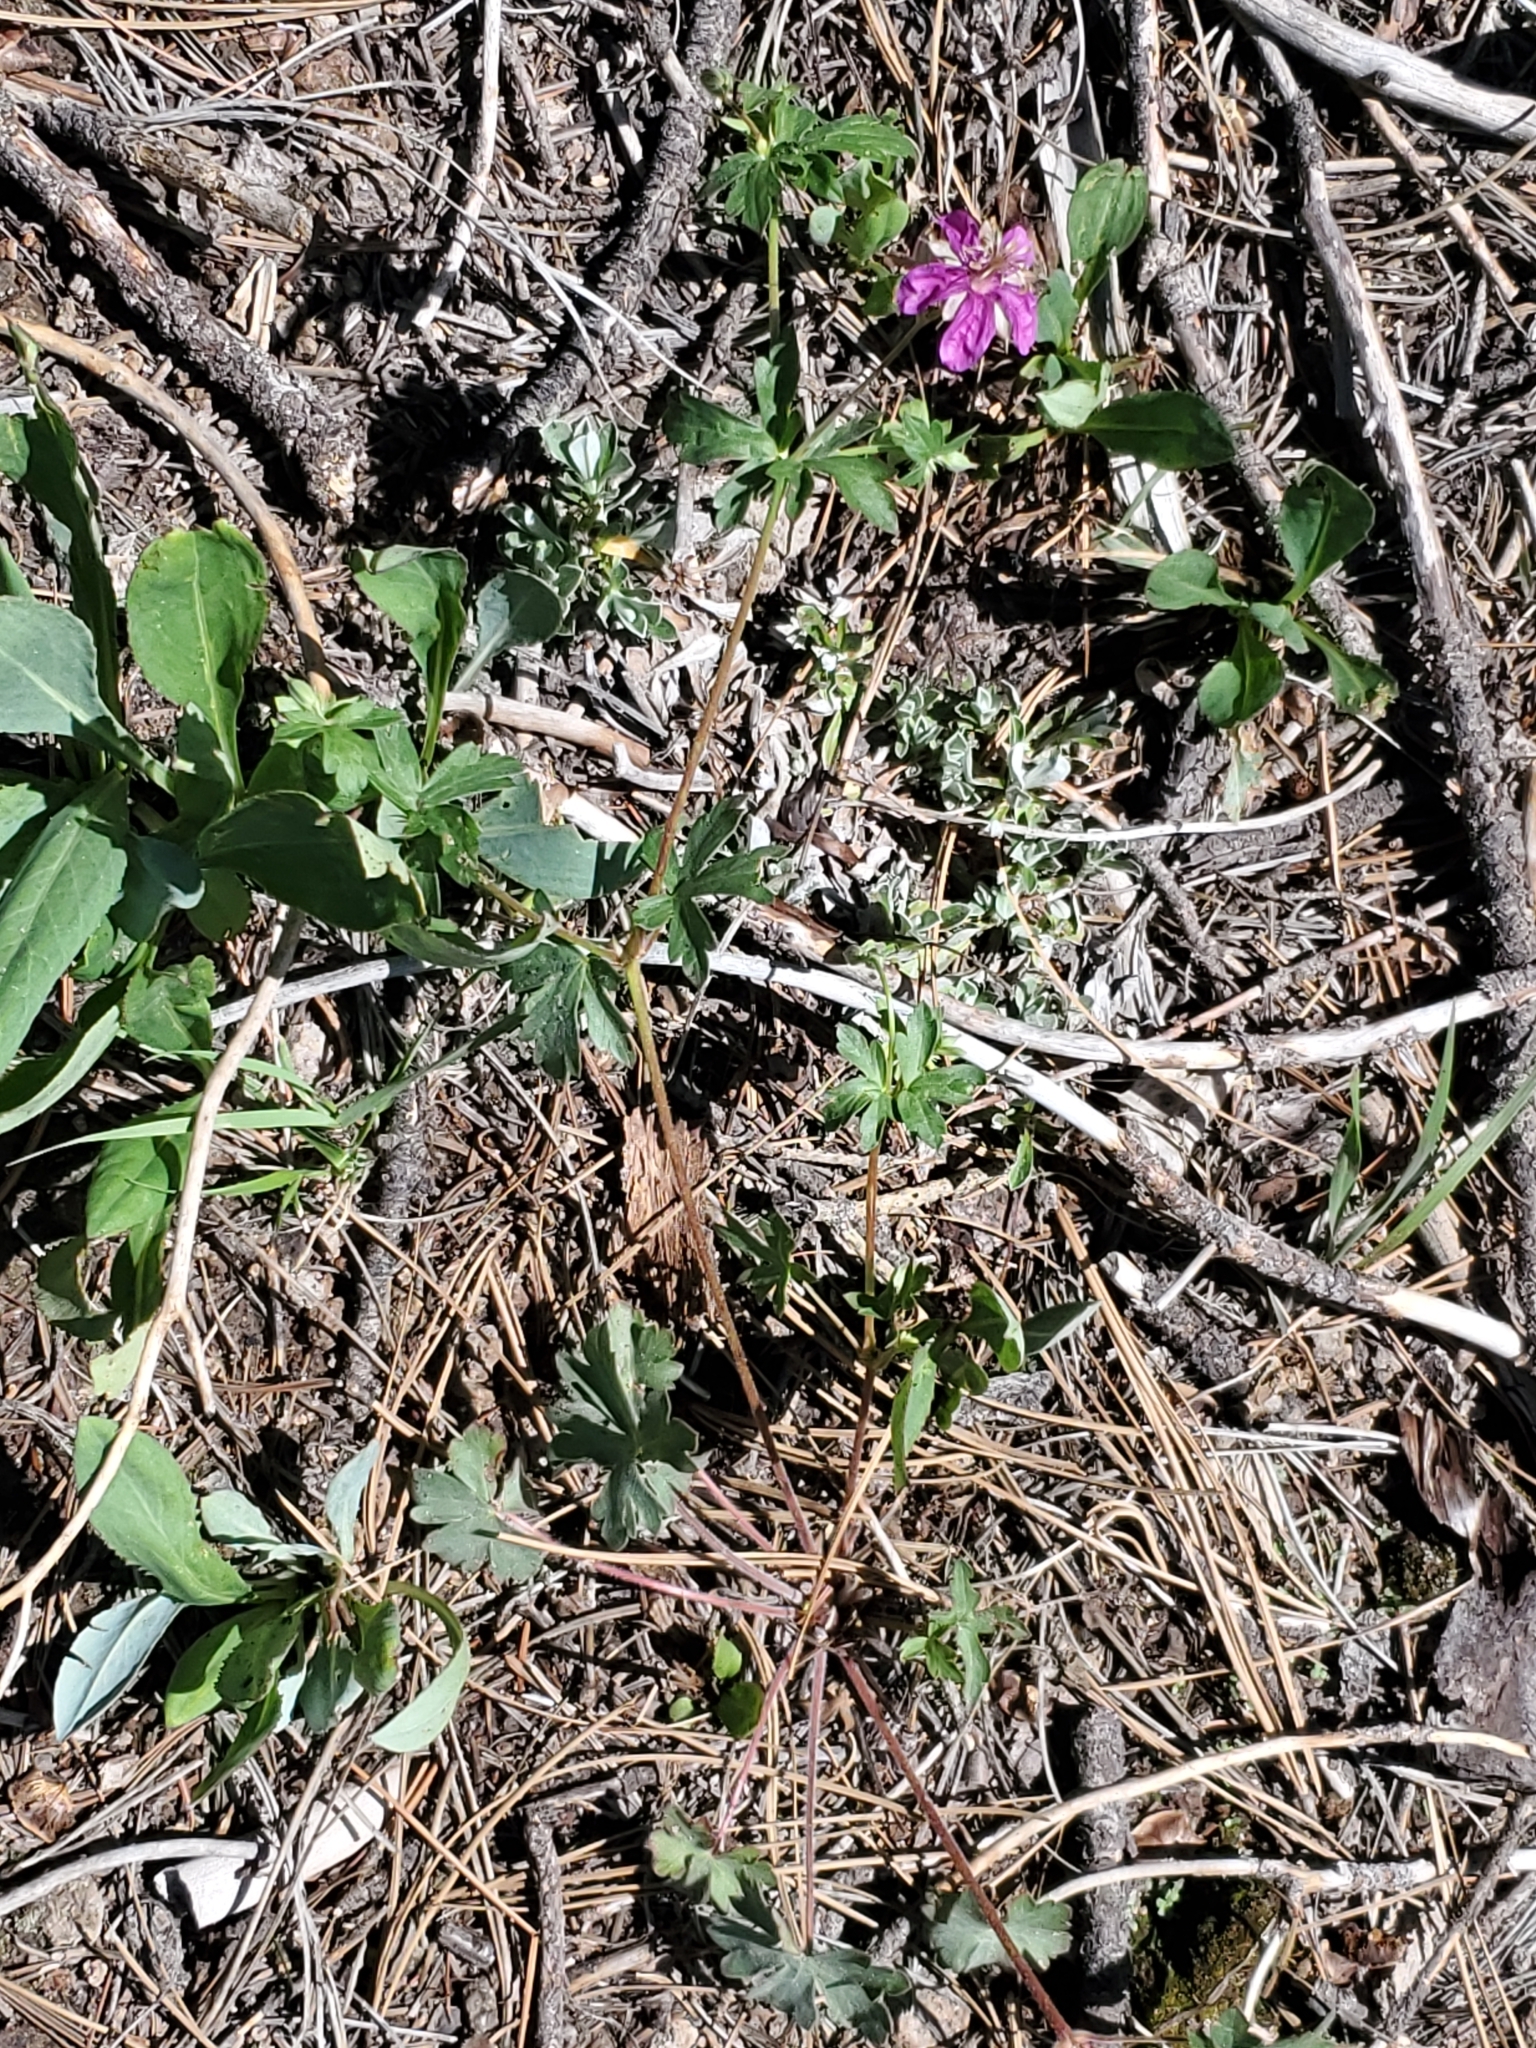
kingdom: Plantae
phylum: Tracheophyta
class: Magnoliopsida
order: Geraniales
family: Geraniaceae
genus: Geranium
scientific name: Geranium caespitosum
